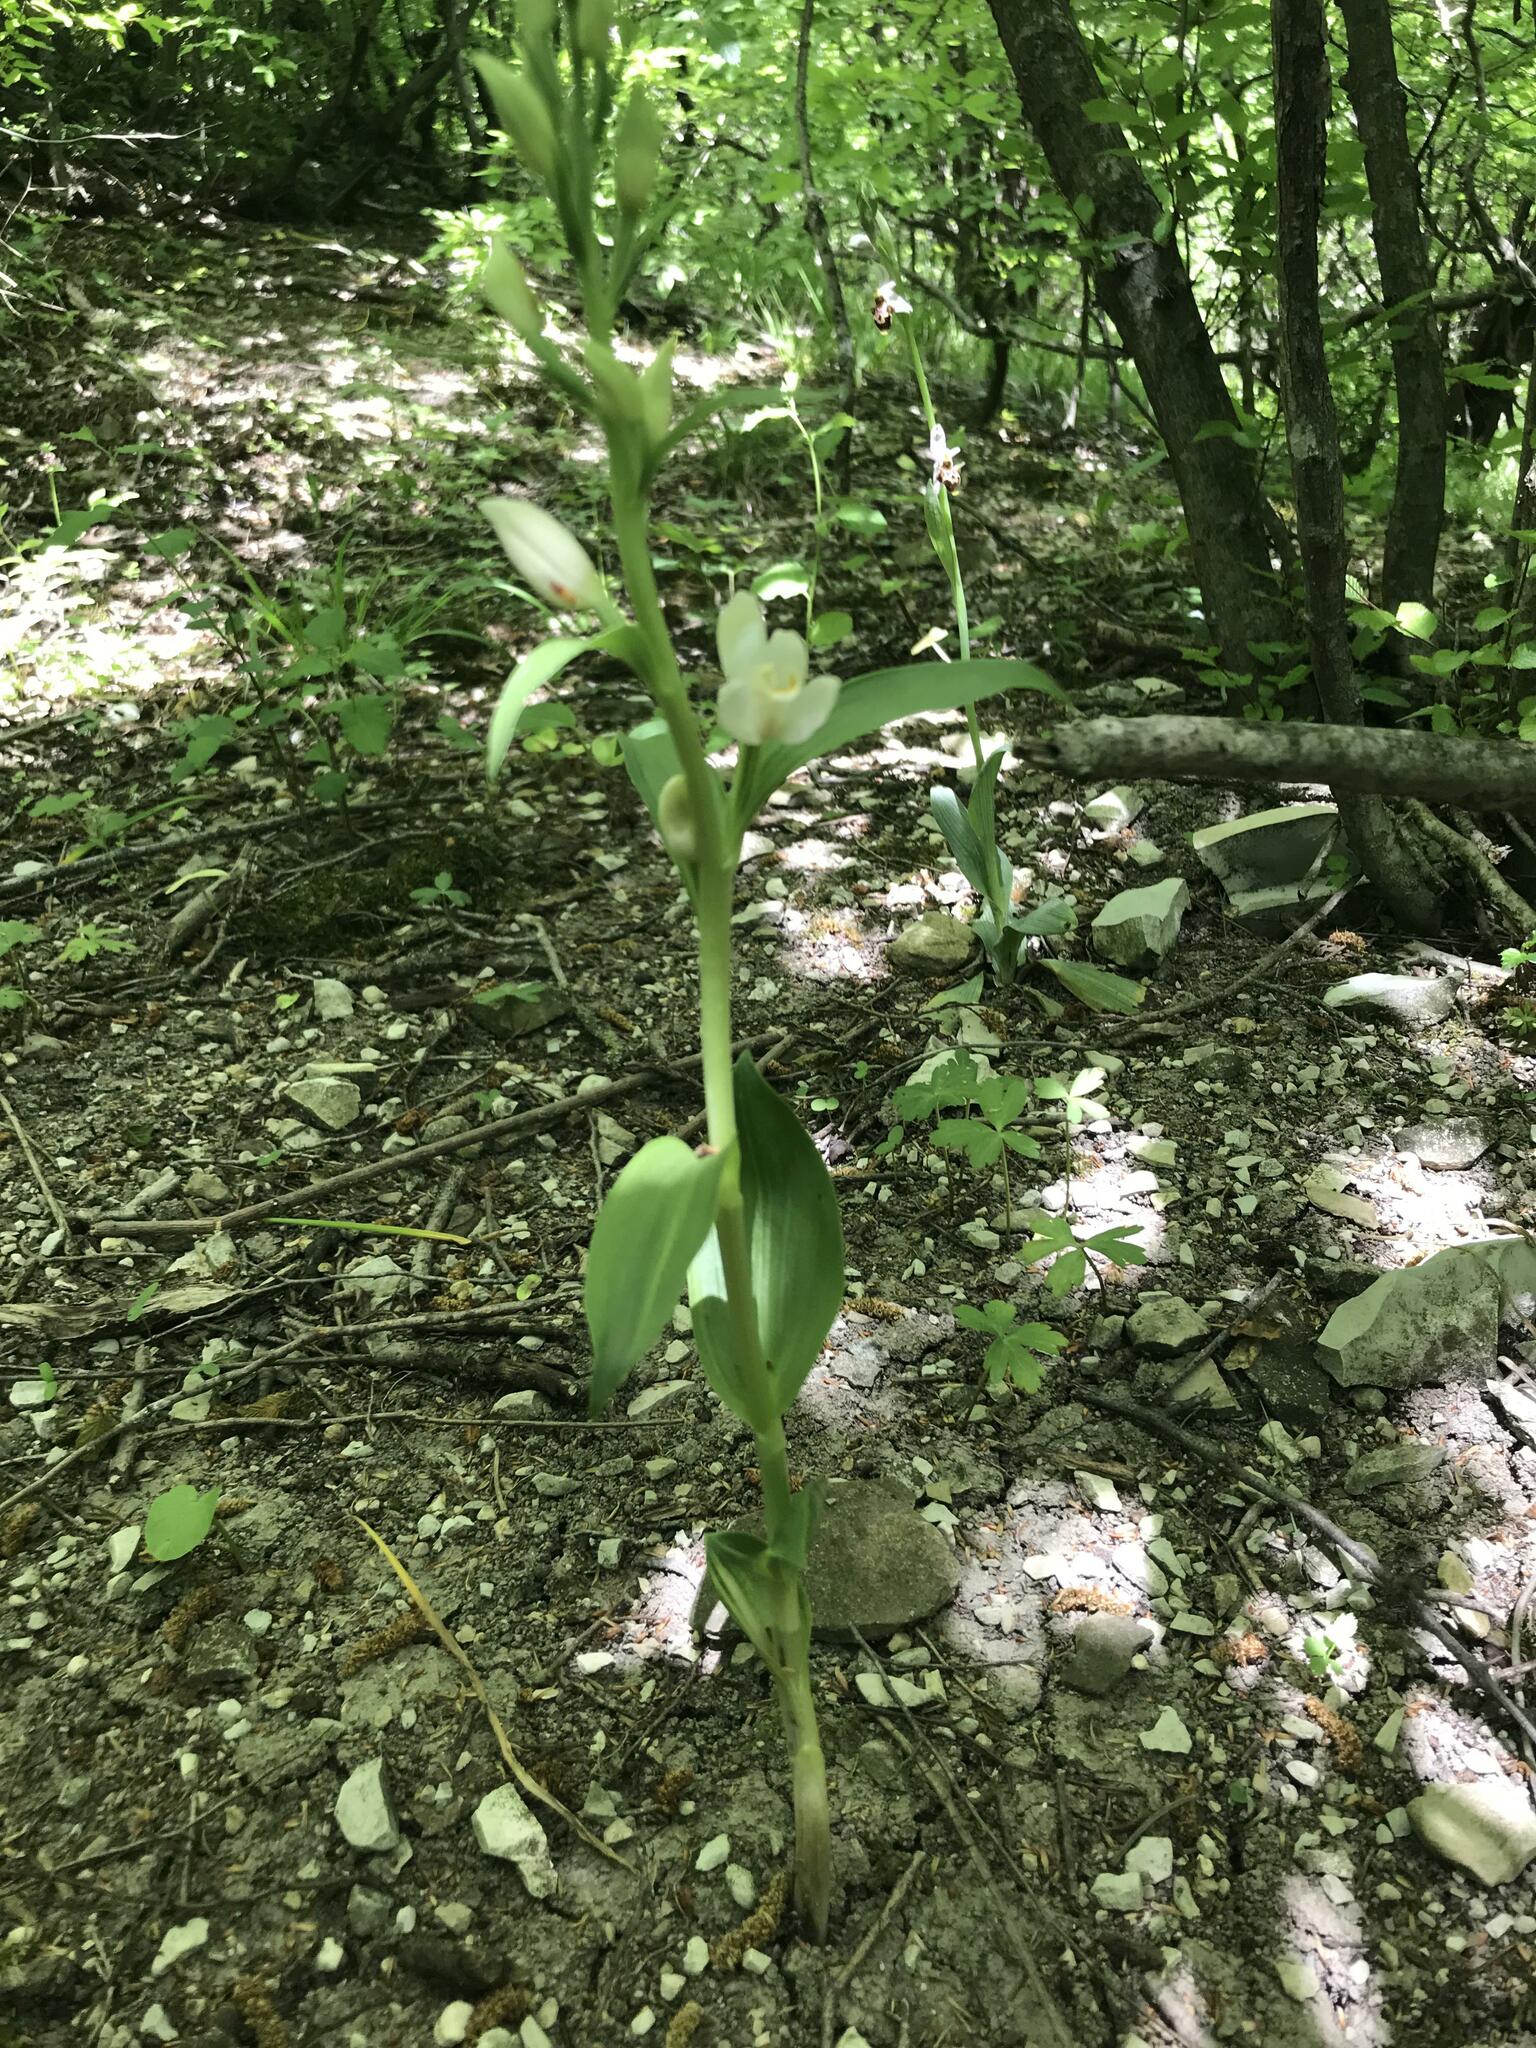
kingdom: Plantae
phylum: Tracheophyta
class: Liliopsida
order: Asparagales
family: Orchidaceae
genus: Cephalanthera
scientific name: Cephalanthera damasonium
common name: White helleborine
